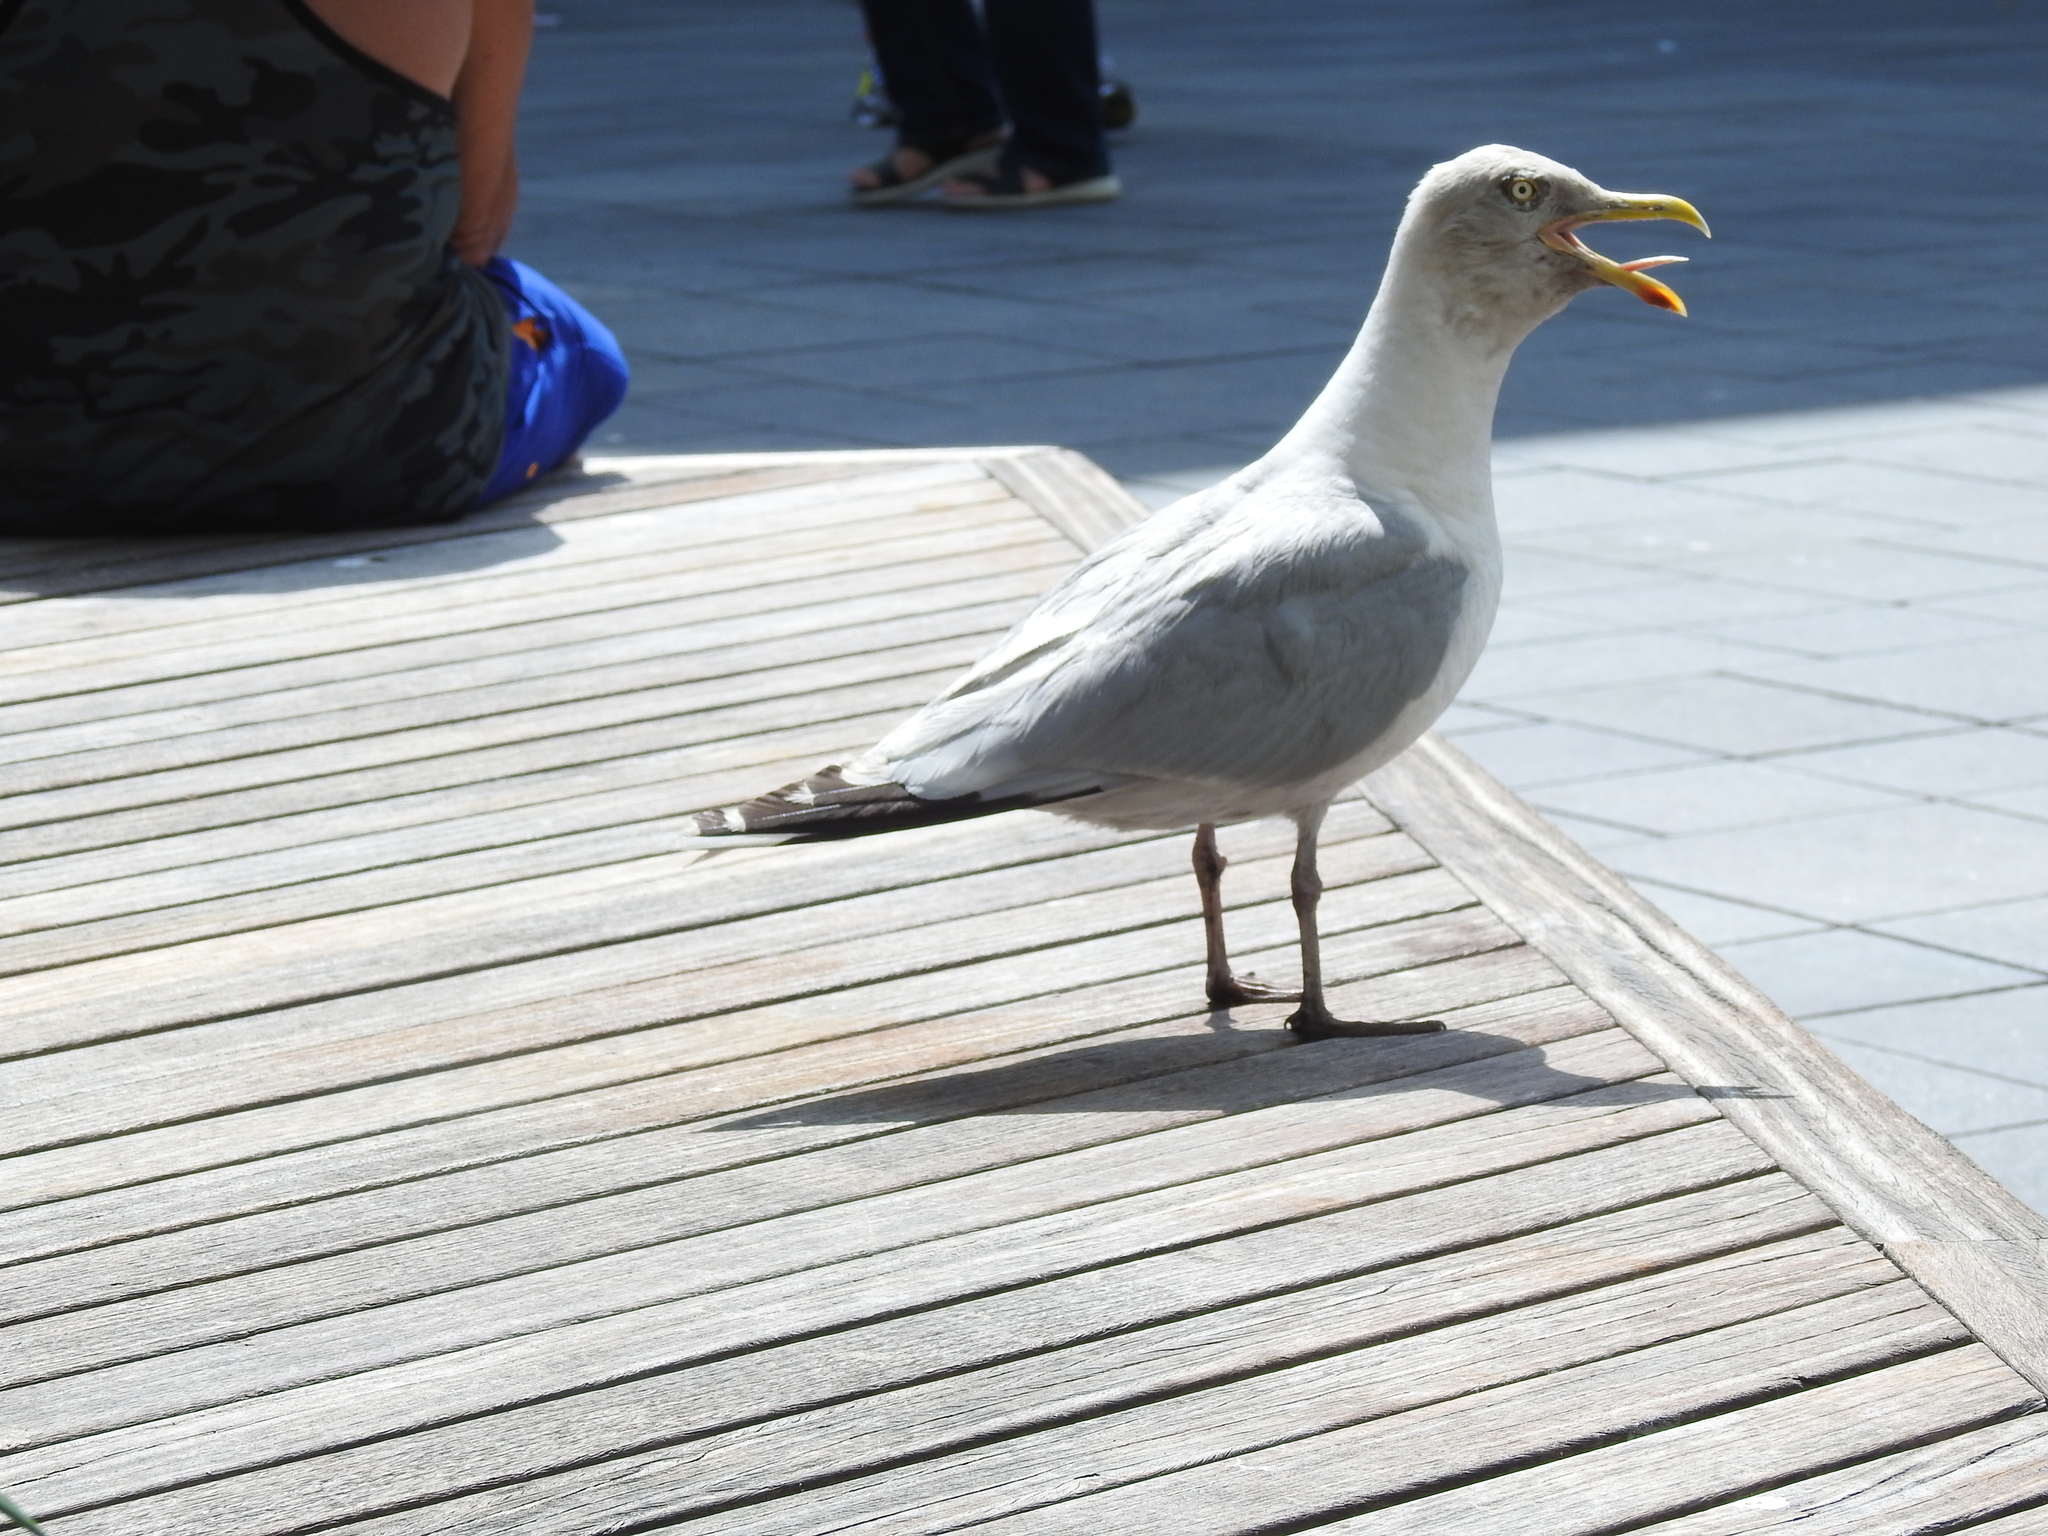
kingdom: Animalia
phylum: Chordata
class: Aves
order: Charadriiformes
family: Laridae
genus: Larus
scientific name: Larus argentatus
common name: Herring gull
